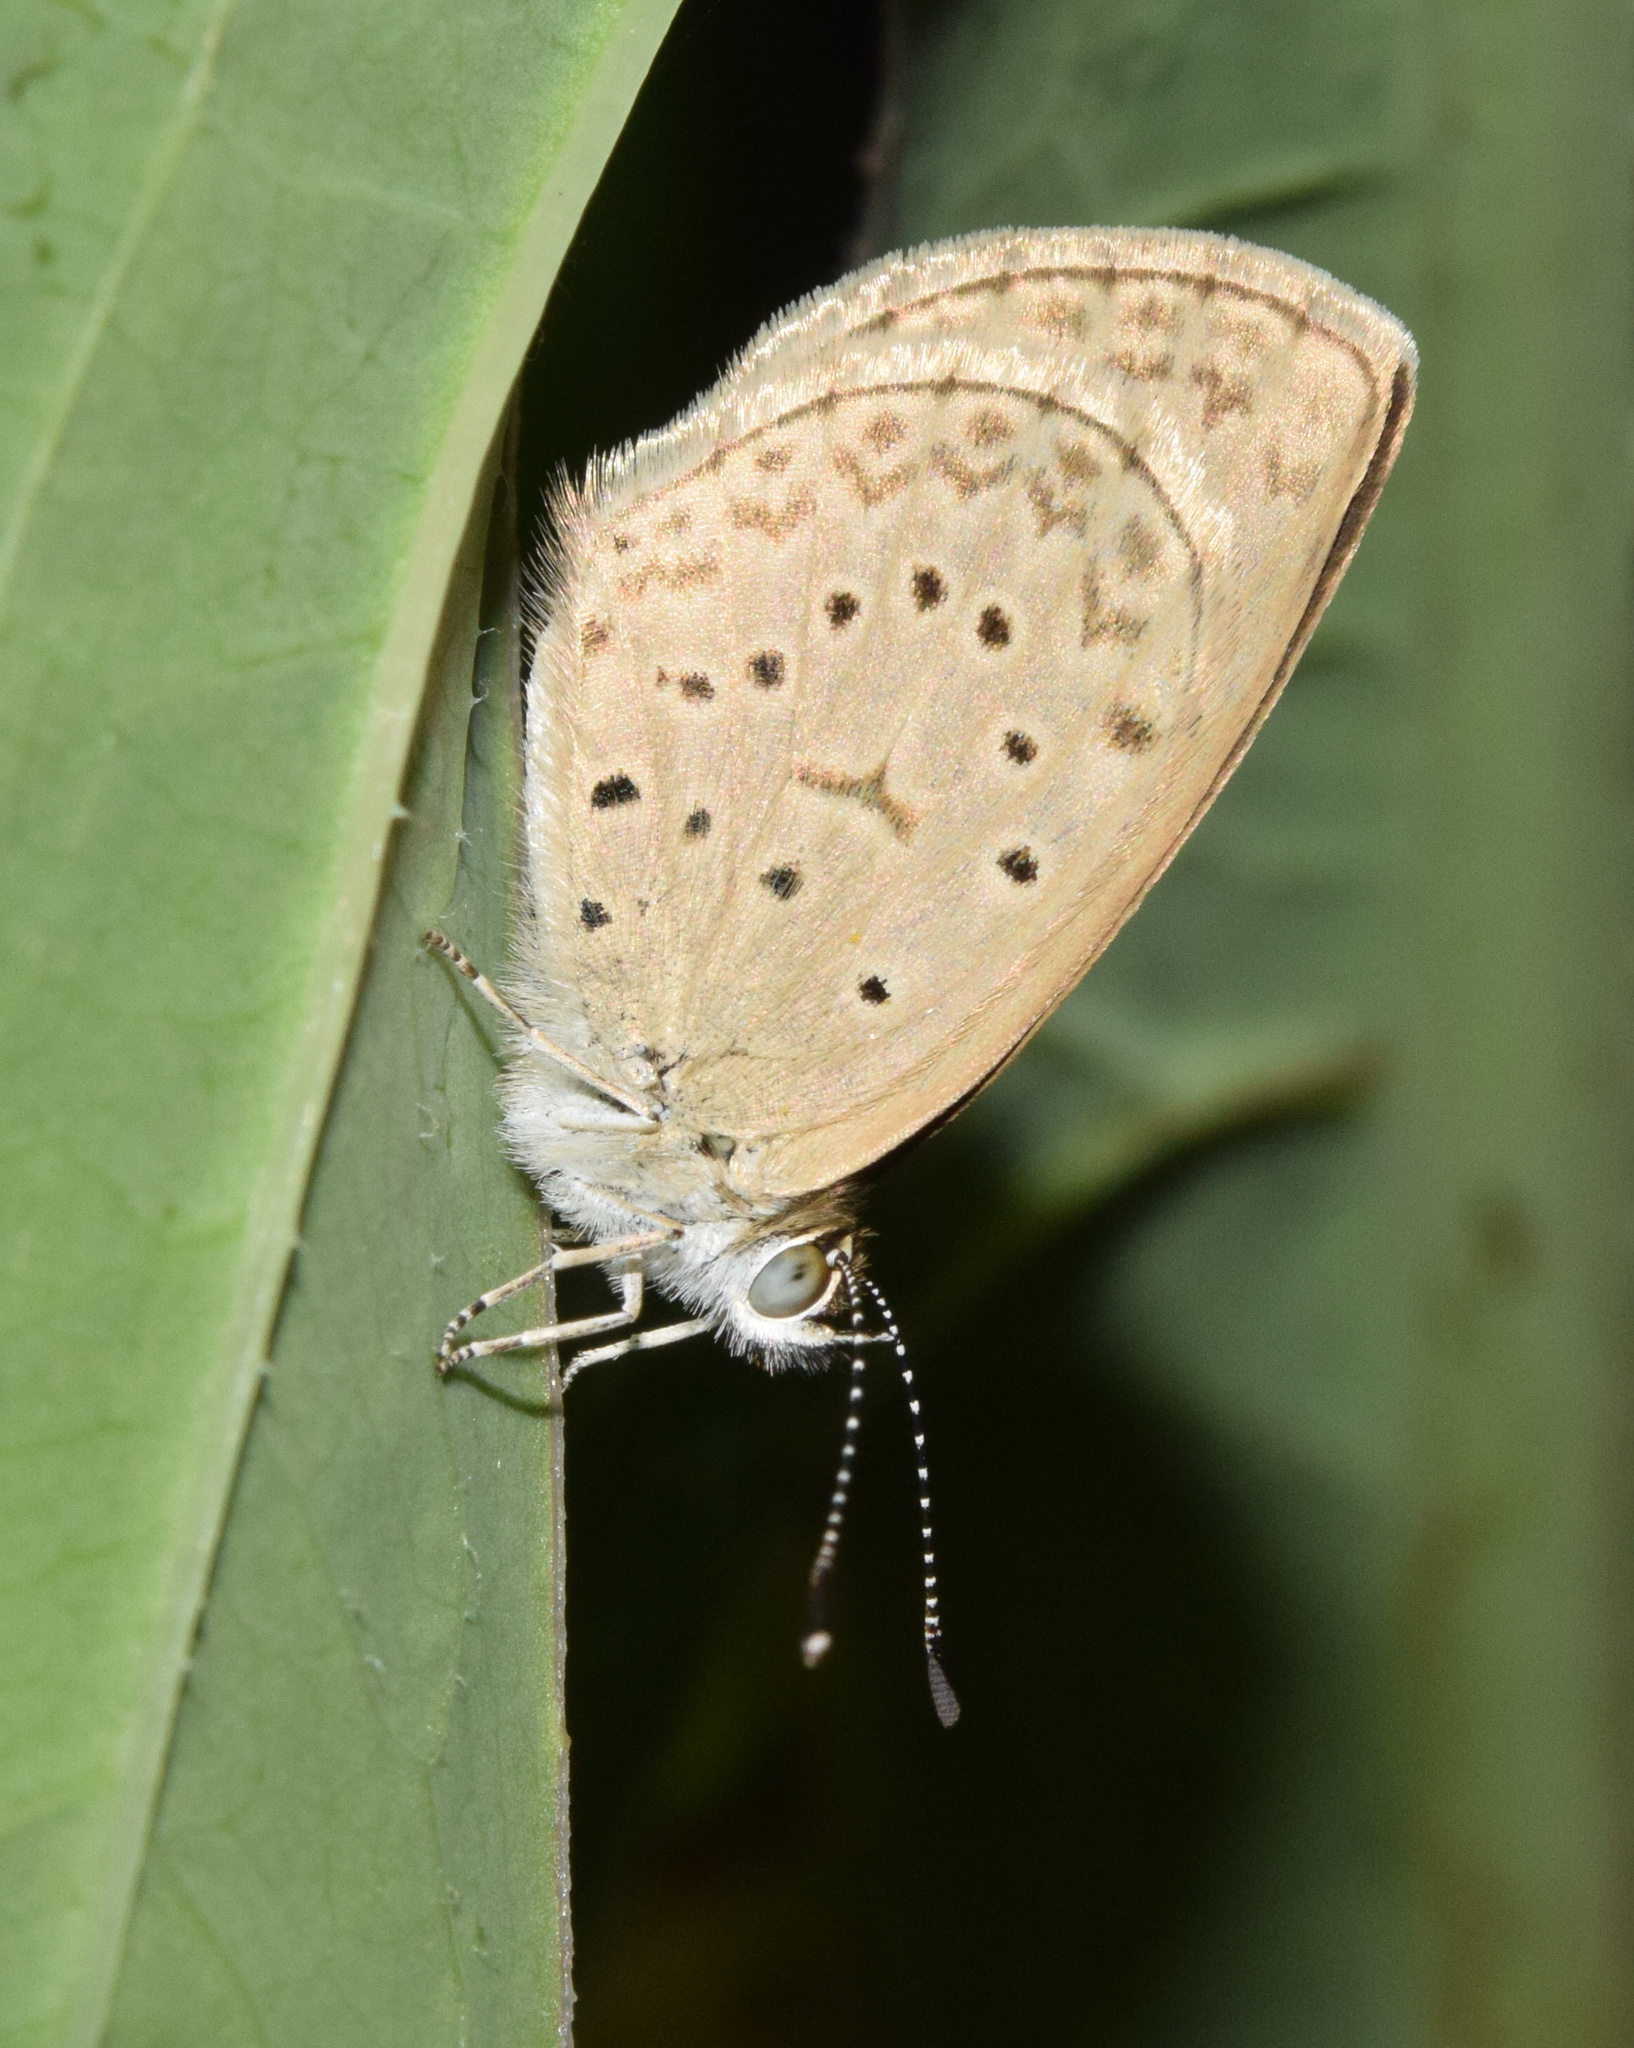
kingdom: Animalia
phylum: Arthropoda
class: Insecta
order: Lepidoptera
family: Lycaenidae
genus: Zizeeria
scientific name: Zizeeria knysna
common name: African grass blue
